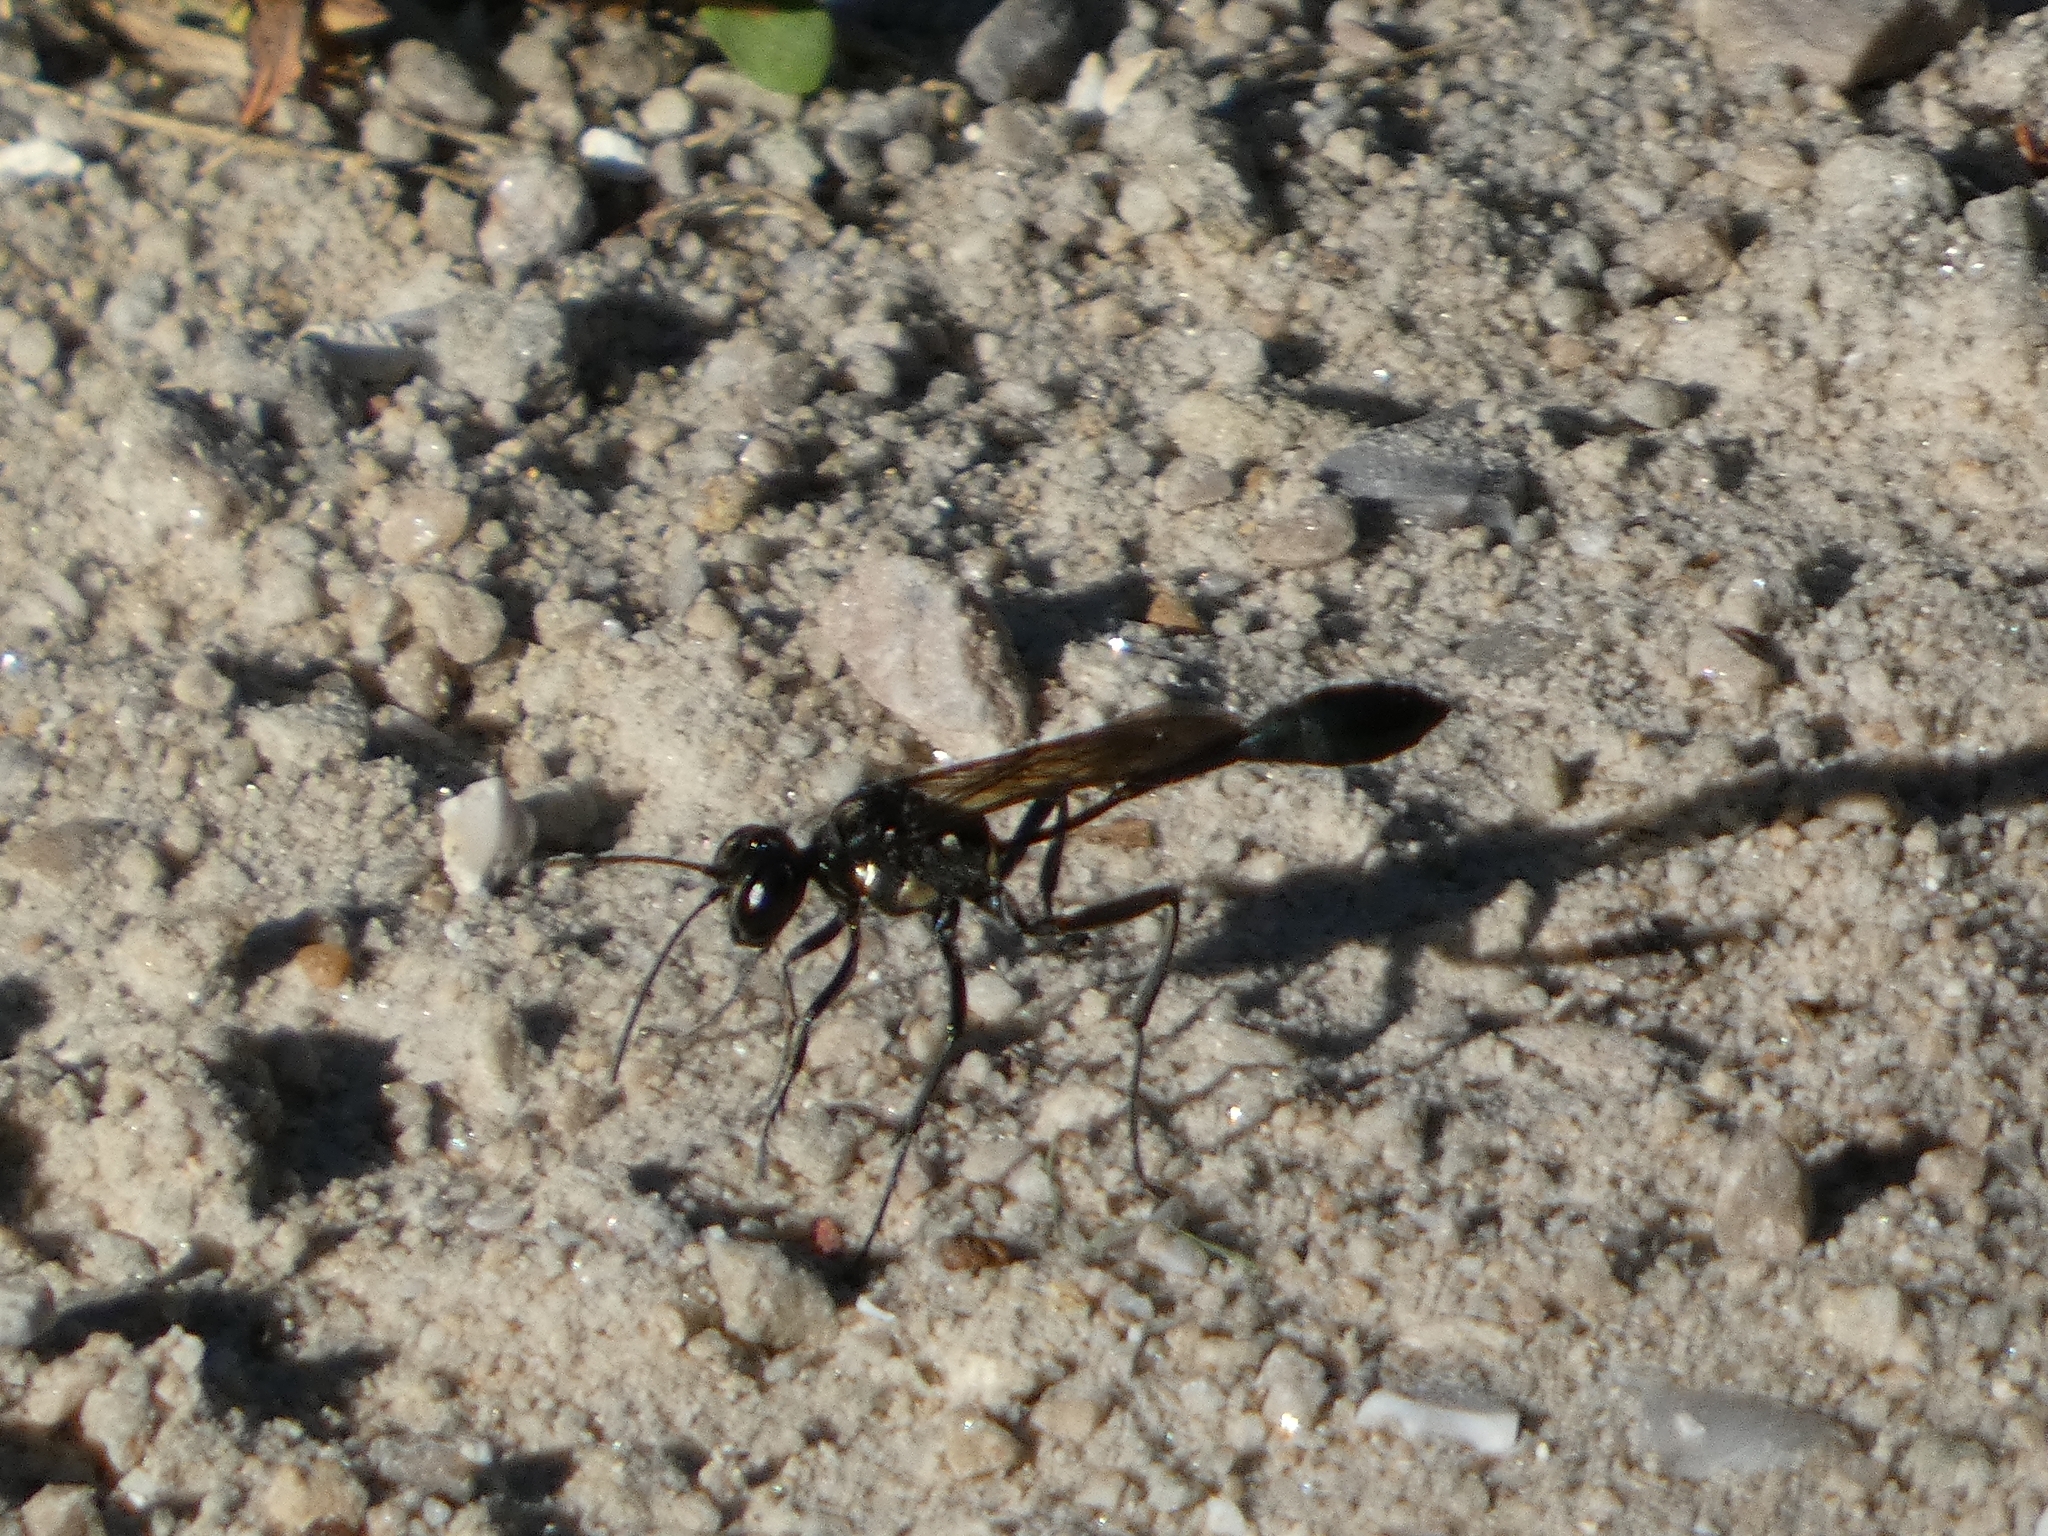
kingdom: Animalia
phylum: Arthropoda
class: Insecta
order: Hymenoptera
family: Sphecidae
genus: Eremnophila
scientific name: Eremnophila aureonotata
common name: Gold-marked thread-waisted wasp
